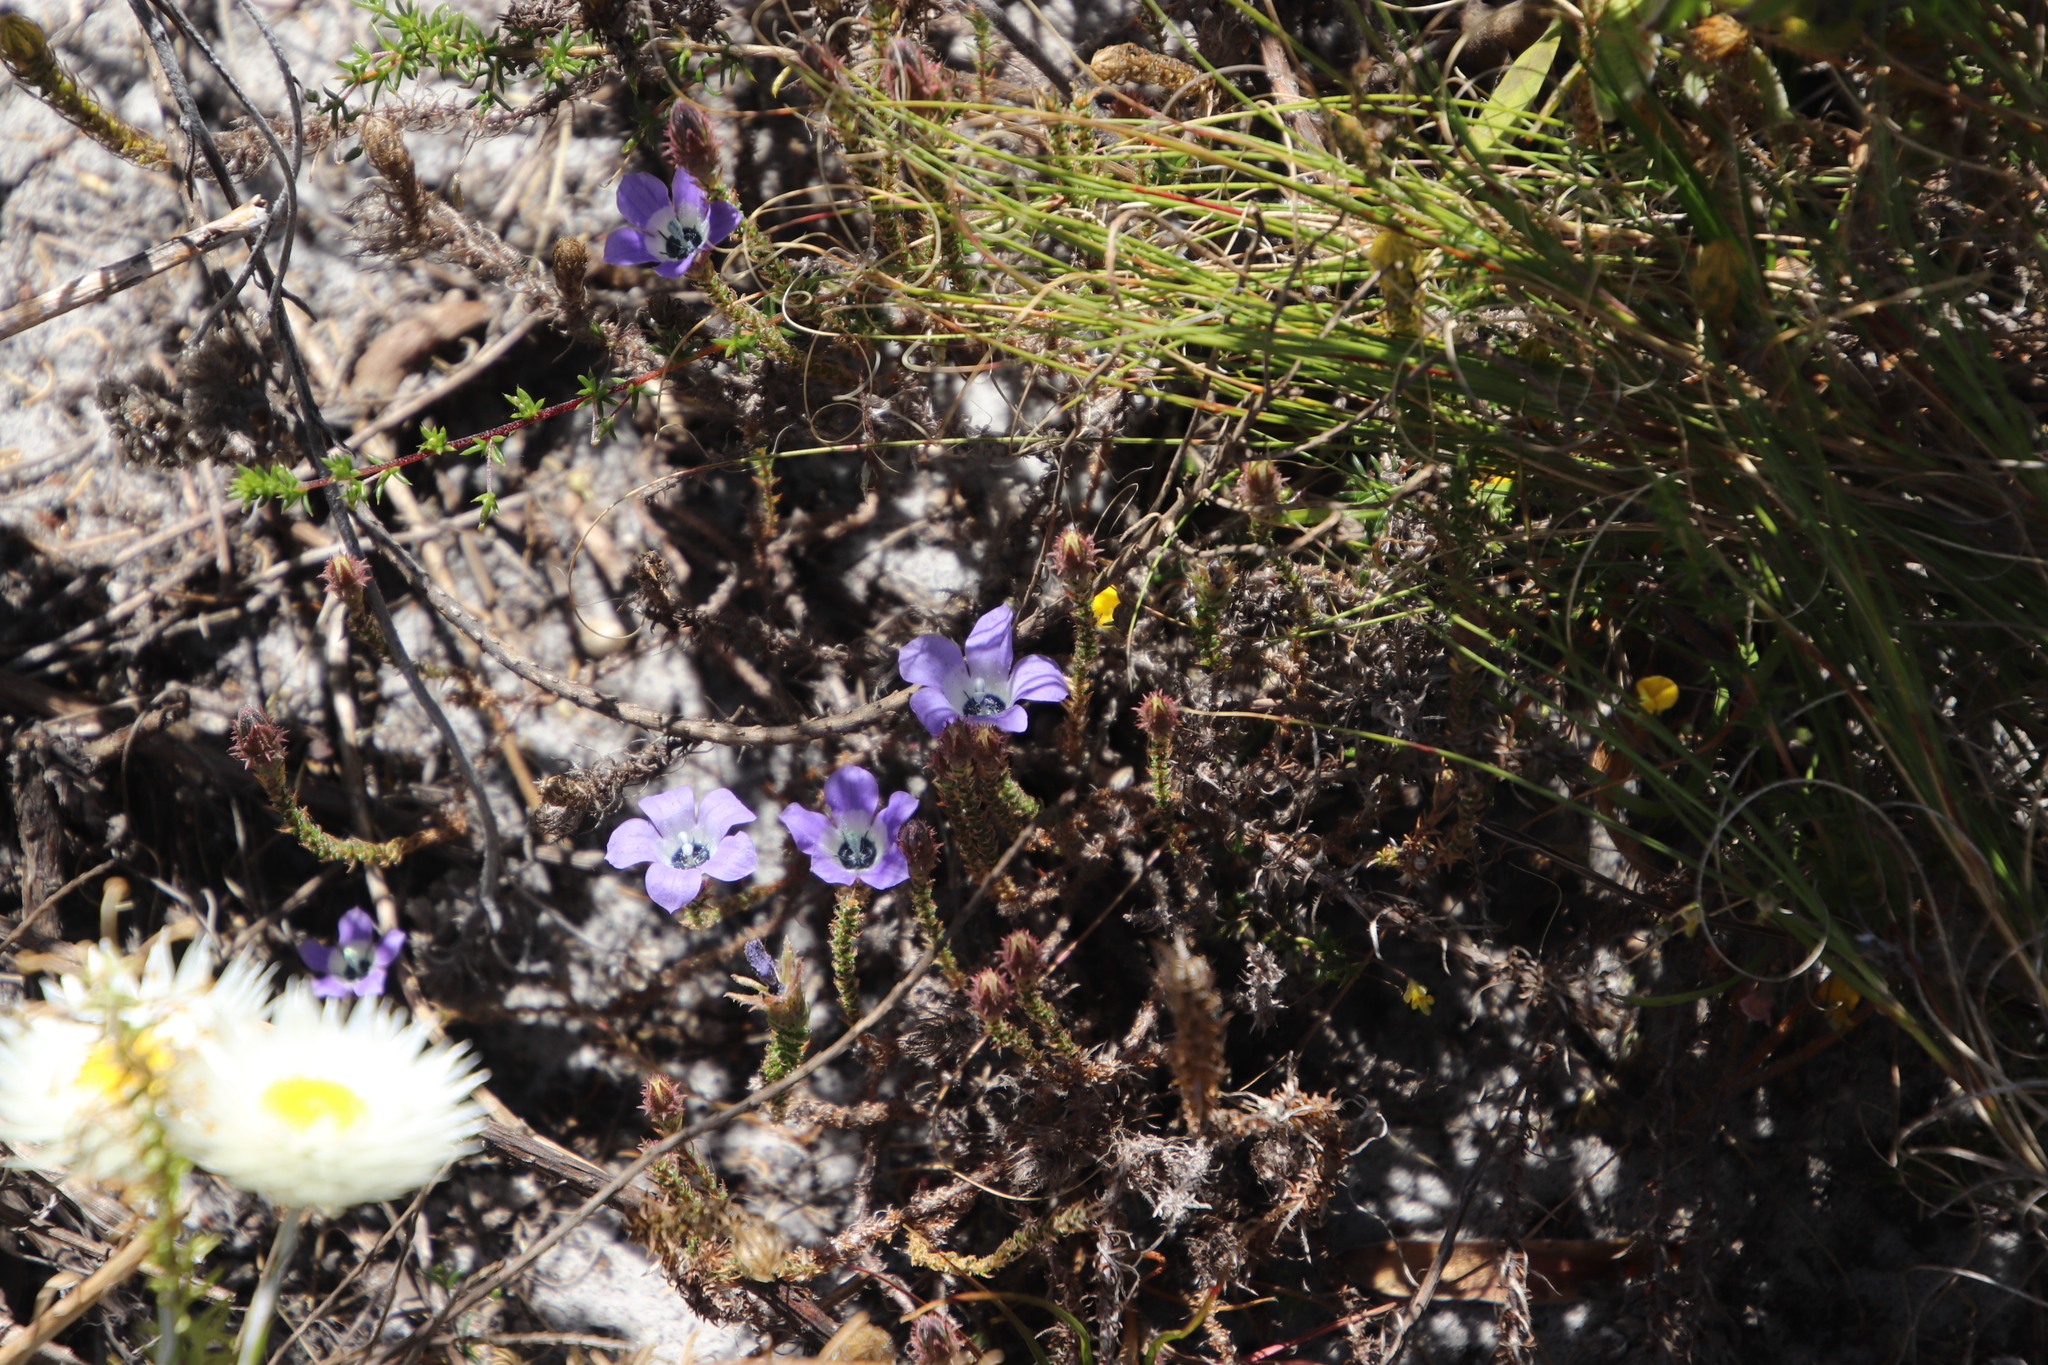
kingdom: Plantae
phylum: Tracheophyta
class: Magnoliopsida
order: Asterales
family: Campanulaceae
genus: Roella
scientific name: Roella triflora
